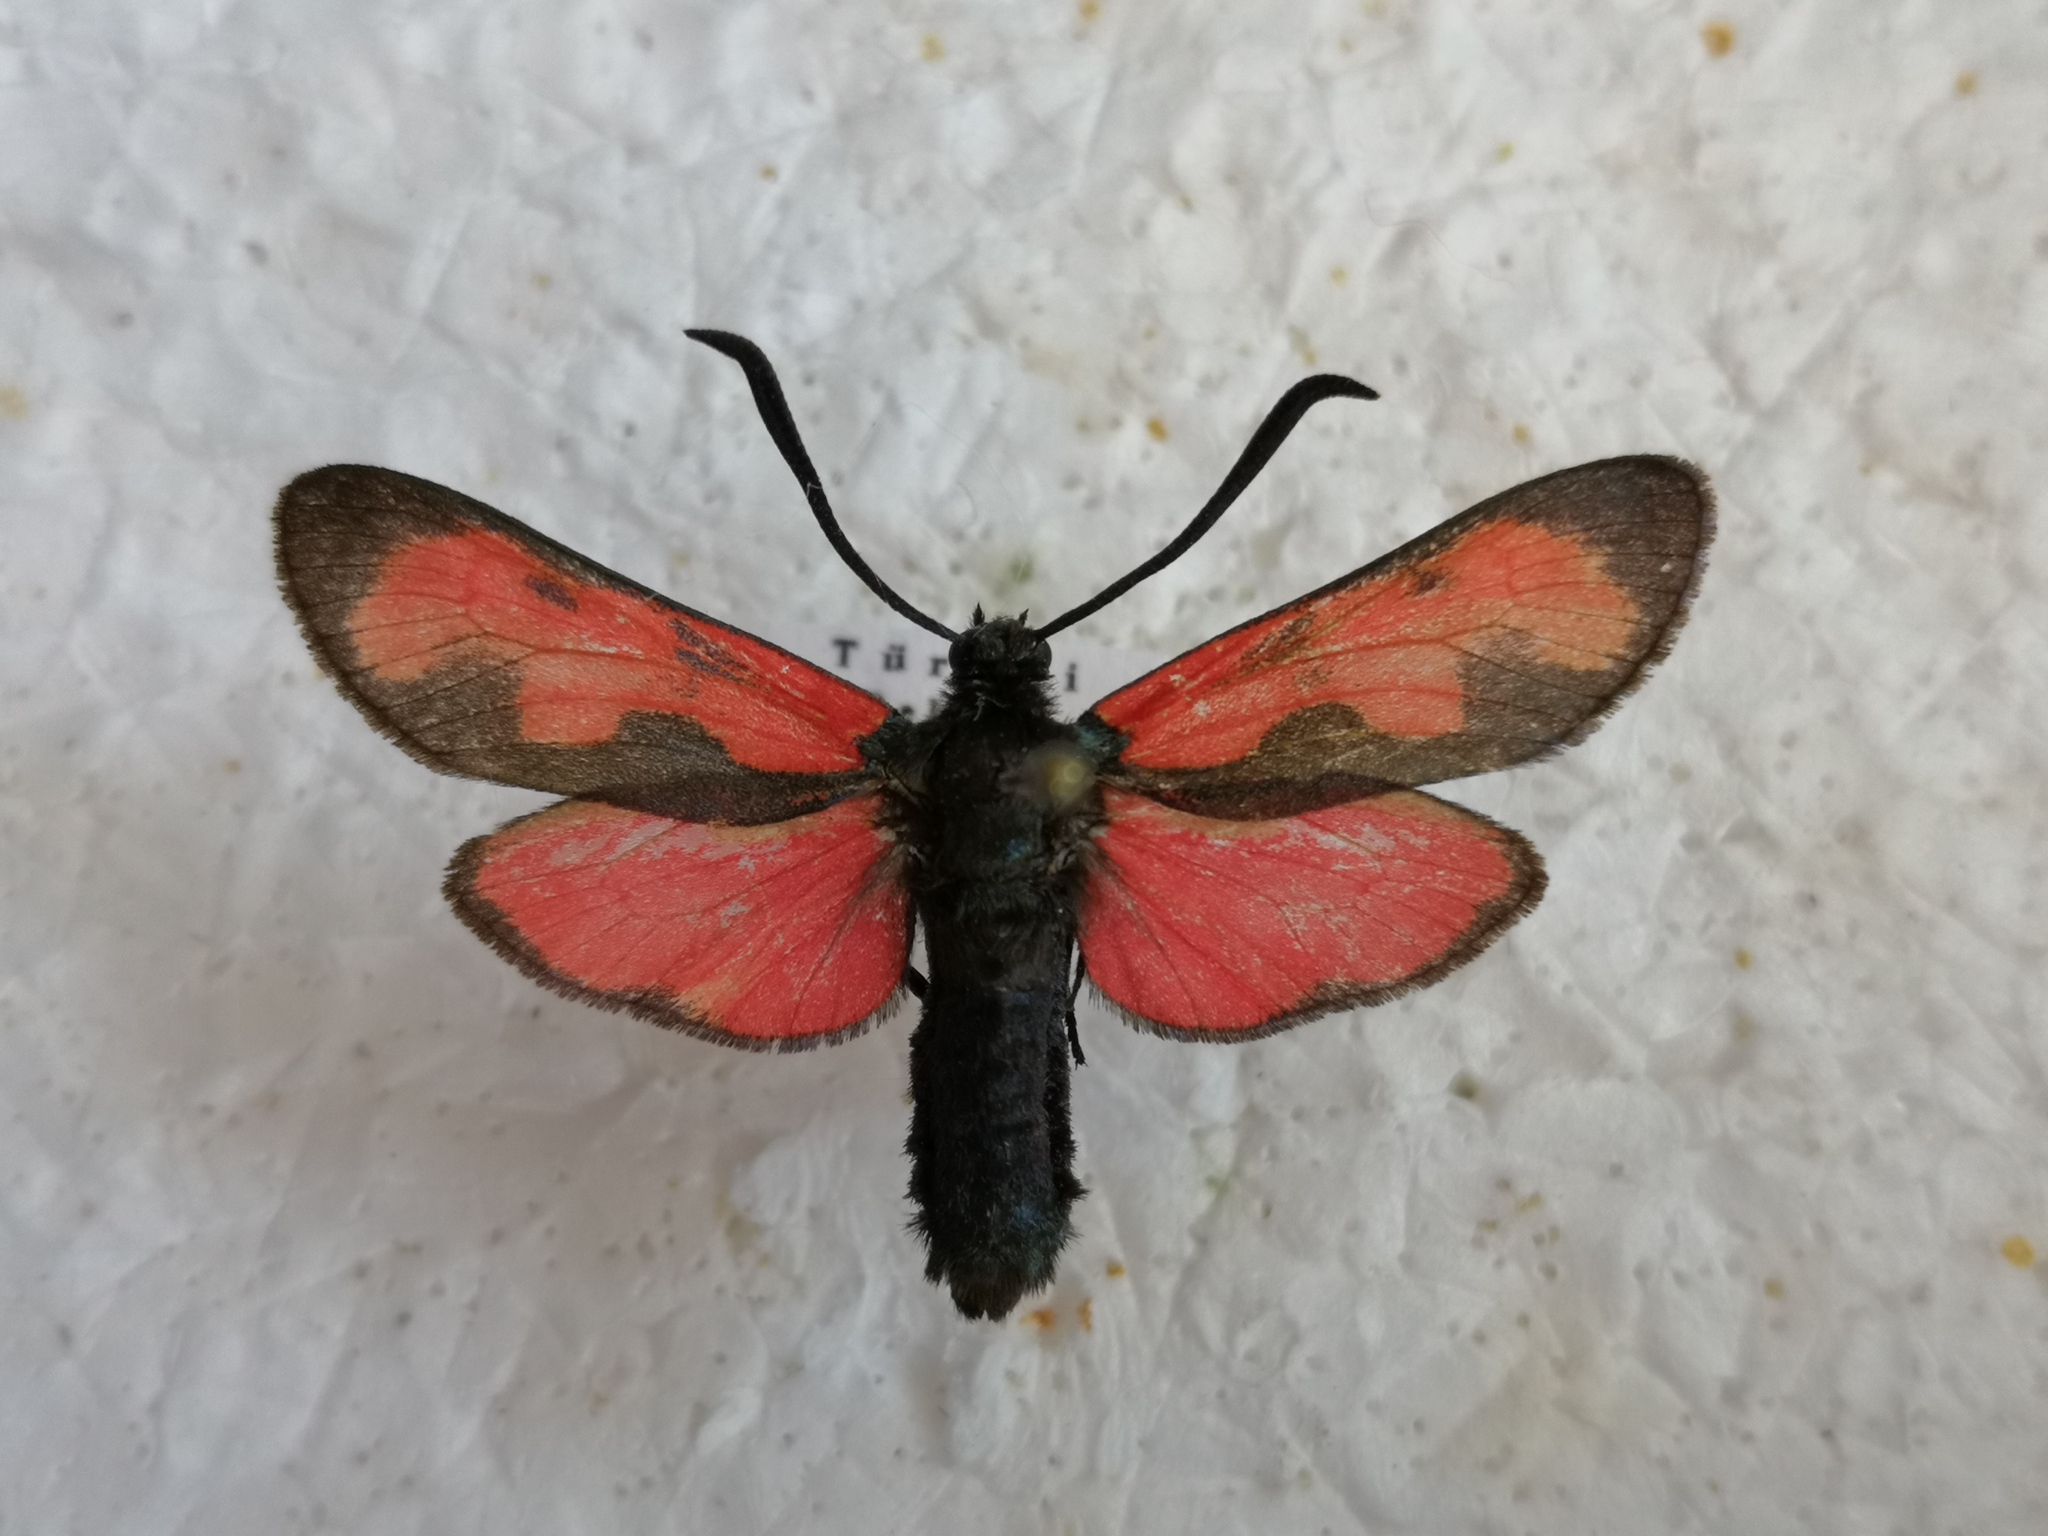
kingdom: Animalia
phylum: Arthropoda
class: Insecta
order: Lepidoptera
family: Zygaenidae
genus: Zygaena
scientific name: Zygaena filipendulae
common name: Six-spot burnet
